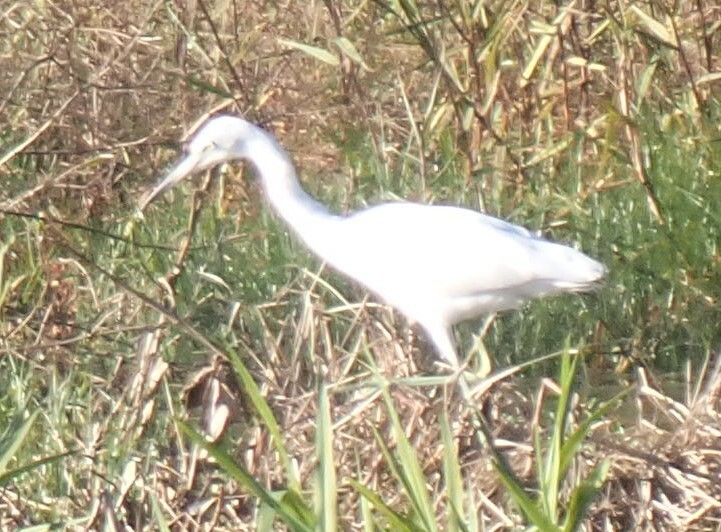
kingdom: Animalia
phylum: Chordata
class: Aves
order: Pelecaniformes
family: Ardeidae
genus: Egretta
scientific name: Egretta caerulea
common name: Little blue heron
